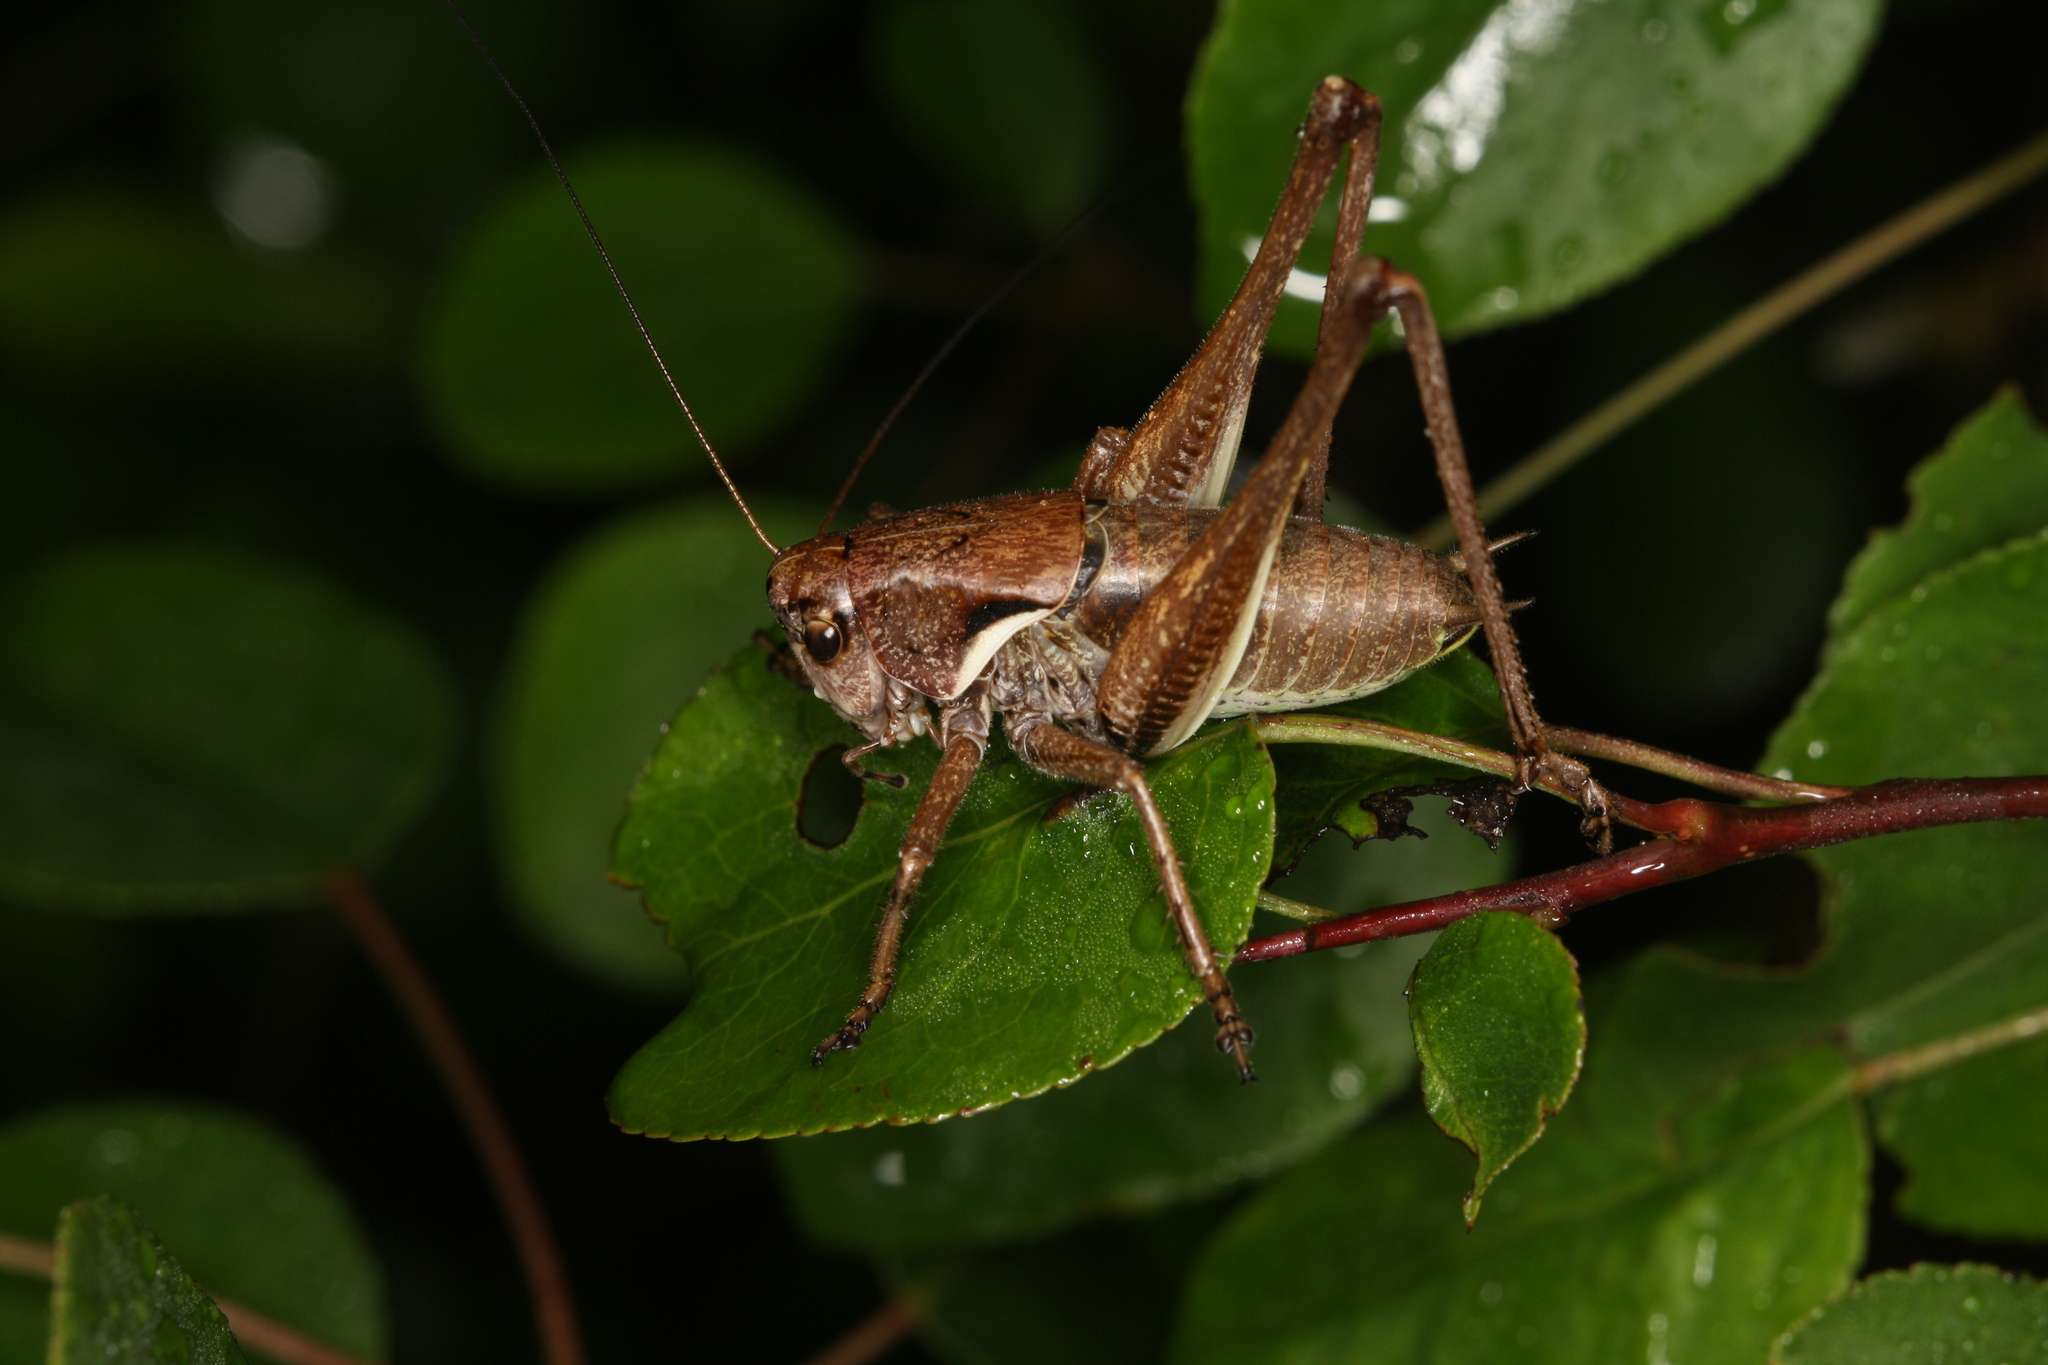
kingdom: Animalia
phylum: Arthropoda
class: Insecta
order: Orthoptera
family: Tettigoniidae
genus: Pholidoptera
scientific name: Pholidoptera aptera
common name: Alpine dark bush-cricket
